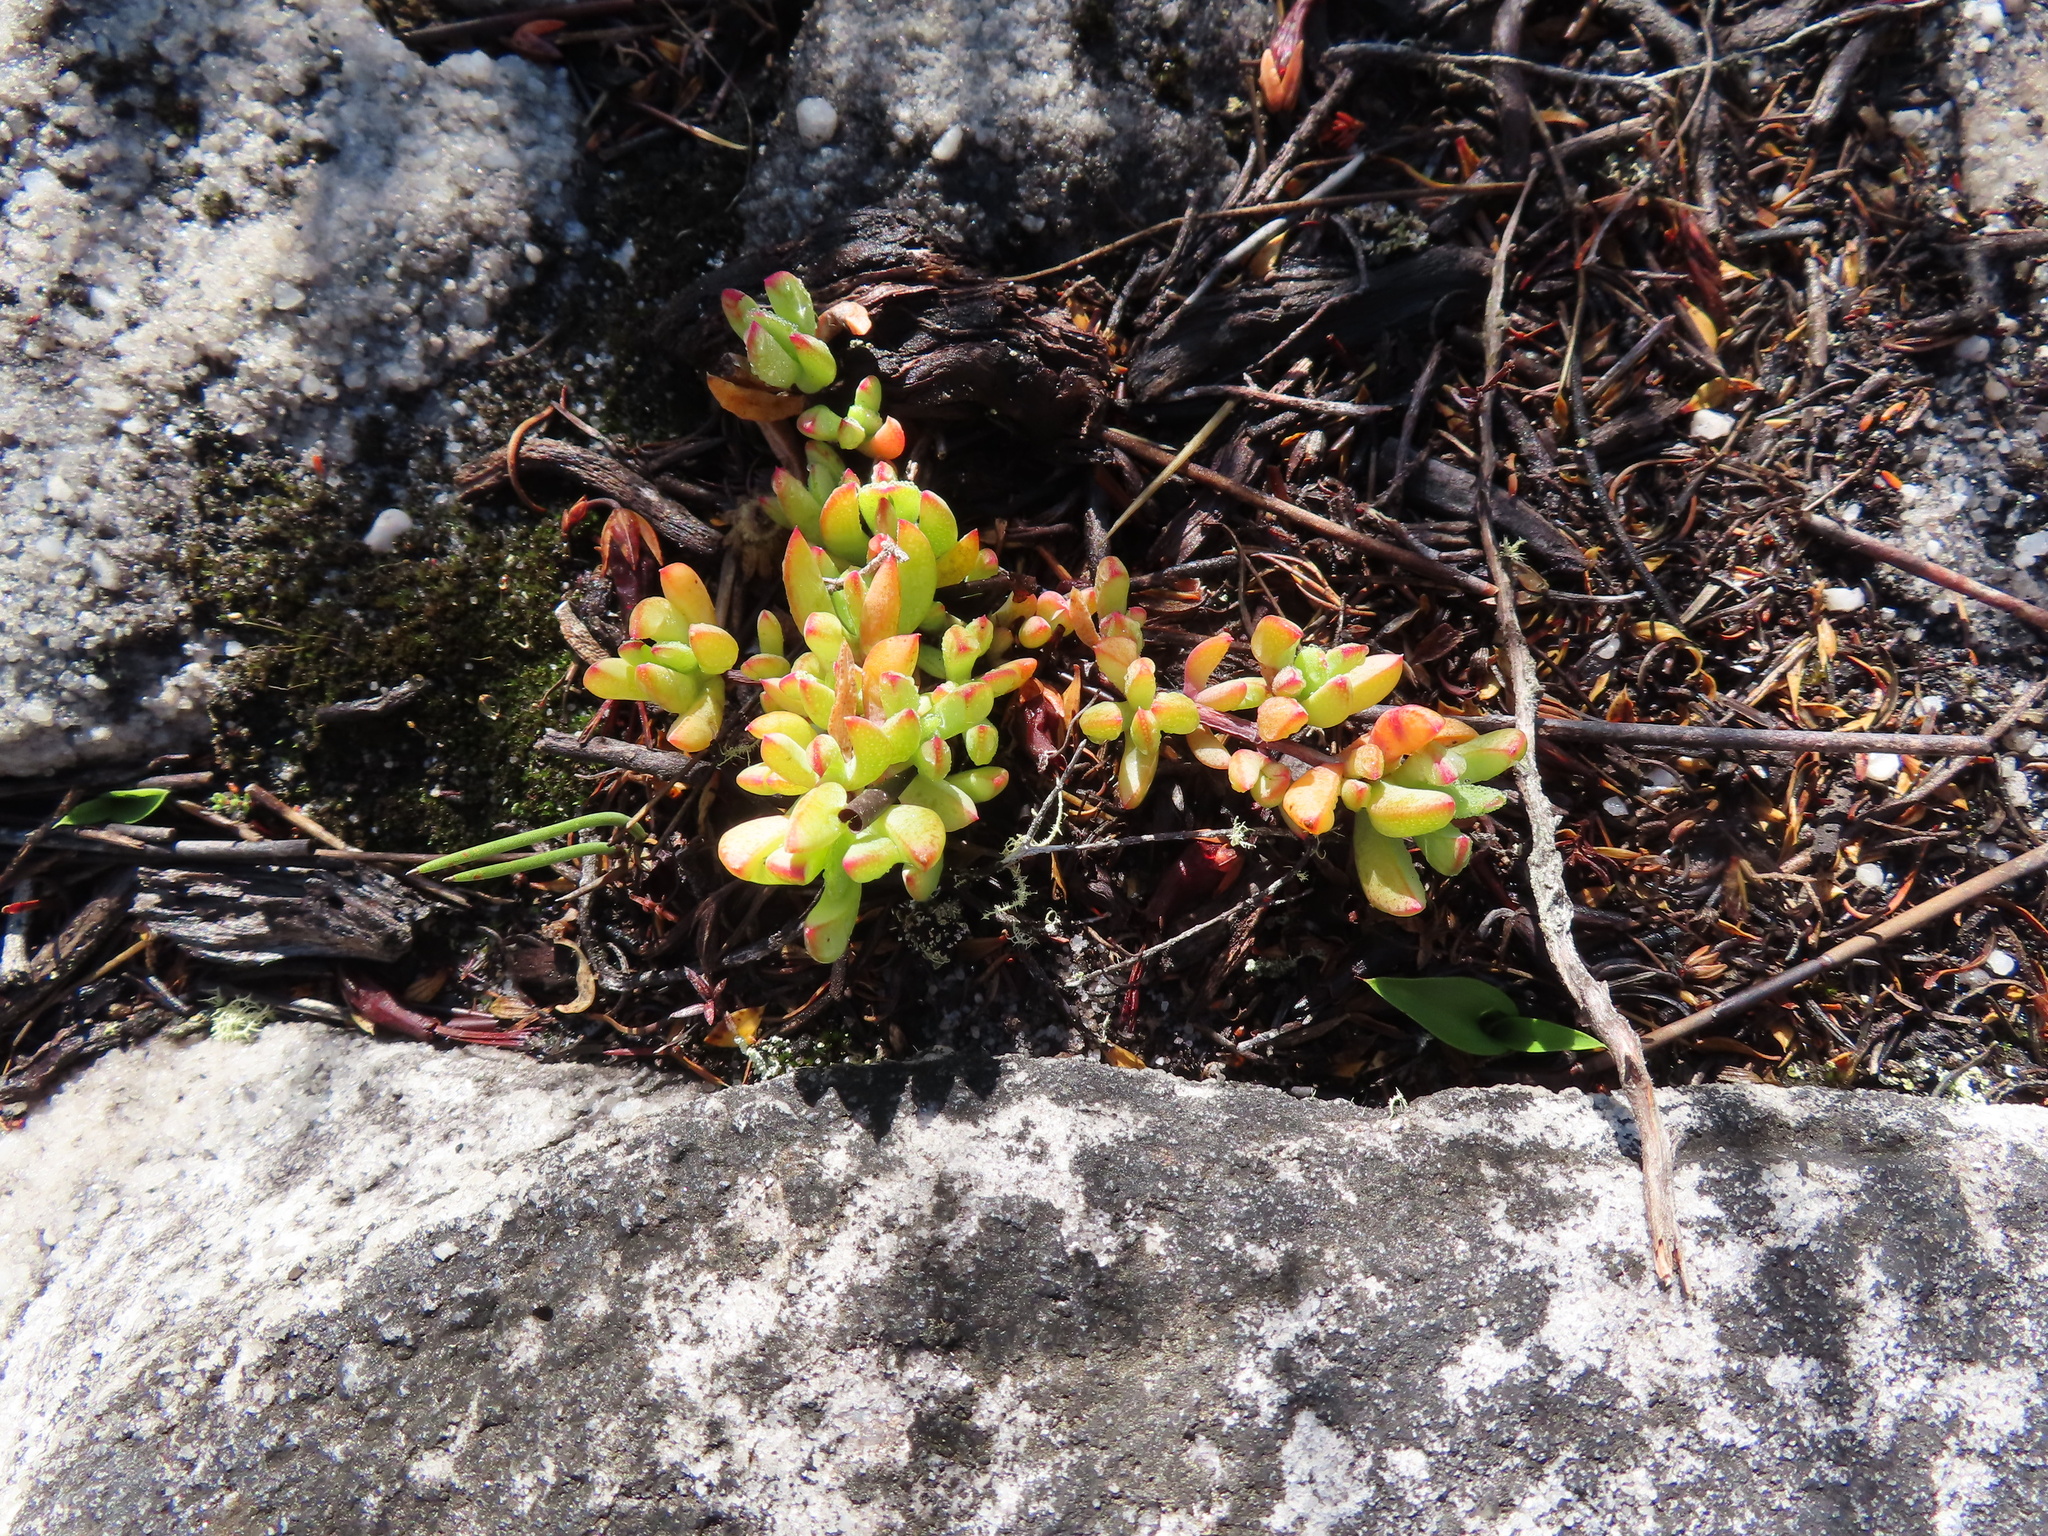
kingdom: Plantae
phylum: Tracheophyta
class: Magnoliopsida
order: Caryophyllales
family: Aizoaceae
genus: Oscularia
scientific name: Oscularia falciformis
